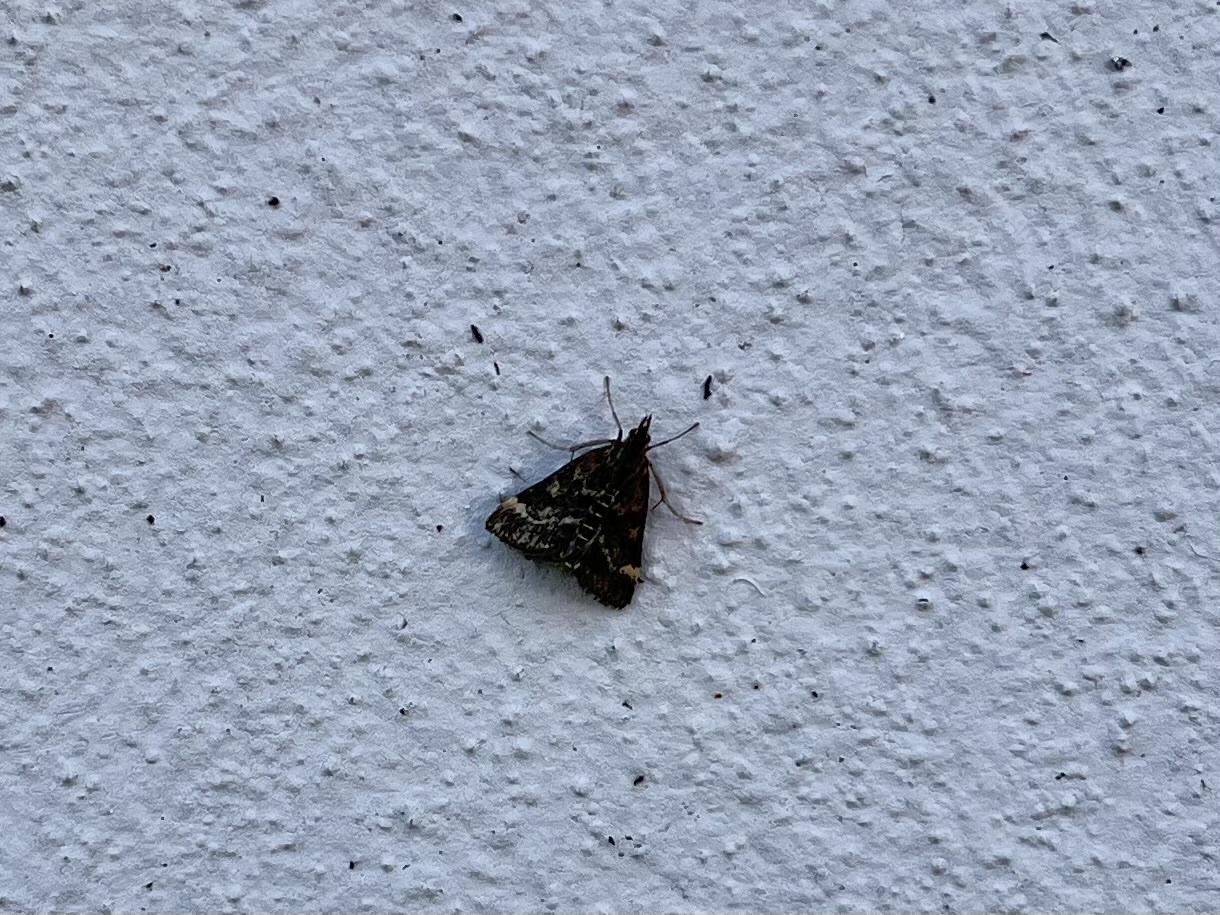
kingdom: Animalia
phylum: Arthropoda
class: Insecta
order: Lepidoptera
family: Crambidae
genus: Pyrausta
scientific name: Pyrausta despicata
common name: Straw-barred pearl
